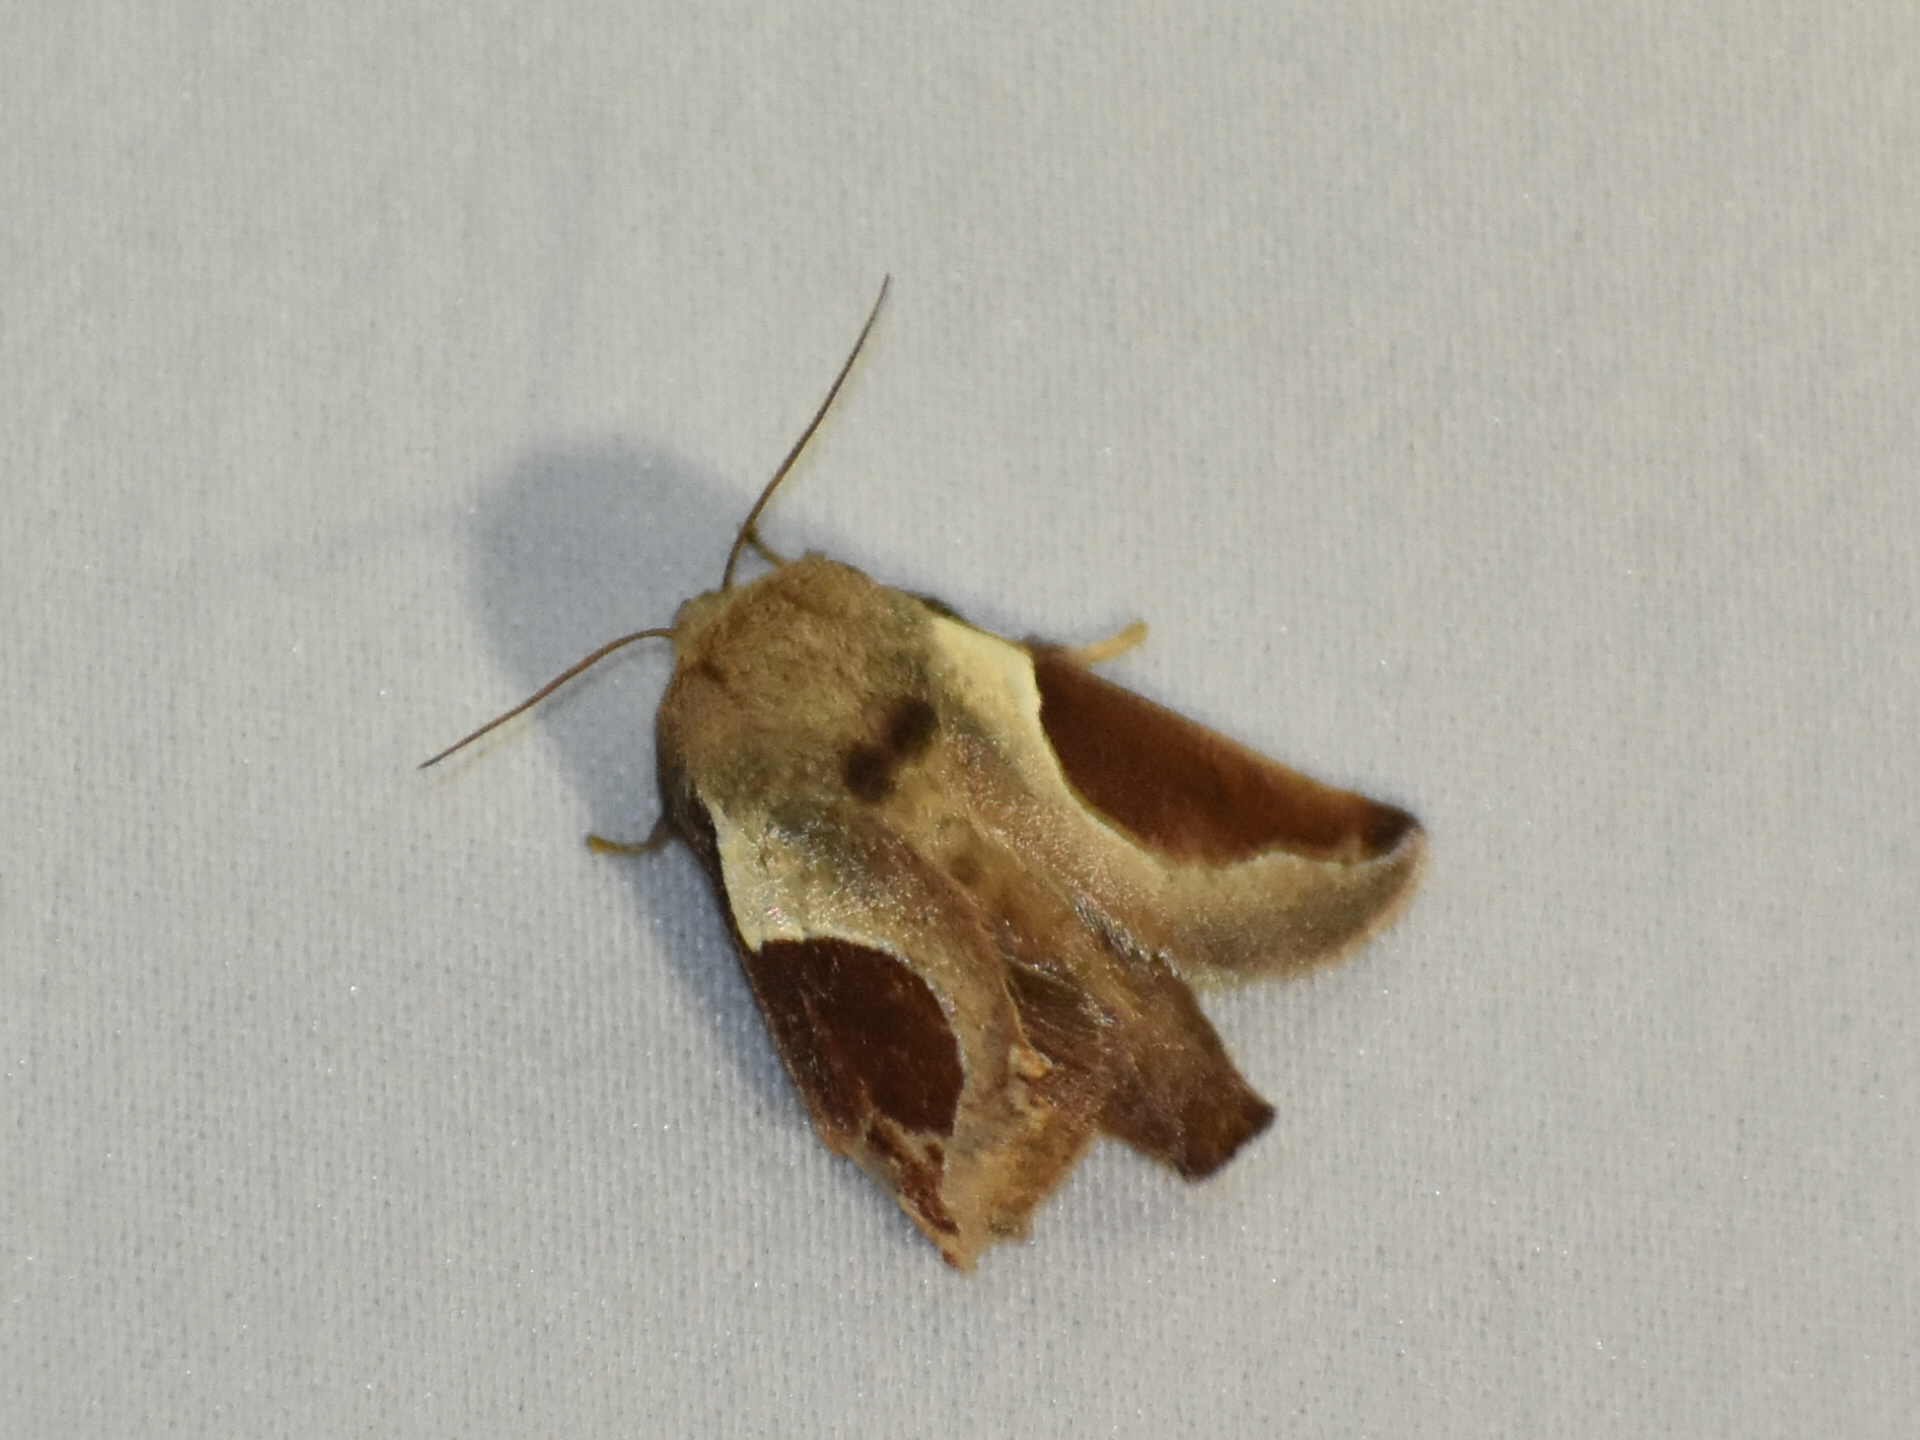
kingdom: Animalia
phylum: Arthropoda
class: Insecta
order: Lepidoptera
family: Limacodidae
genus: Prolimacodes
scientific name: Prolimacodes badia
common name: Skiff moth
